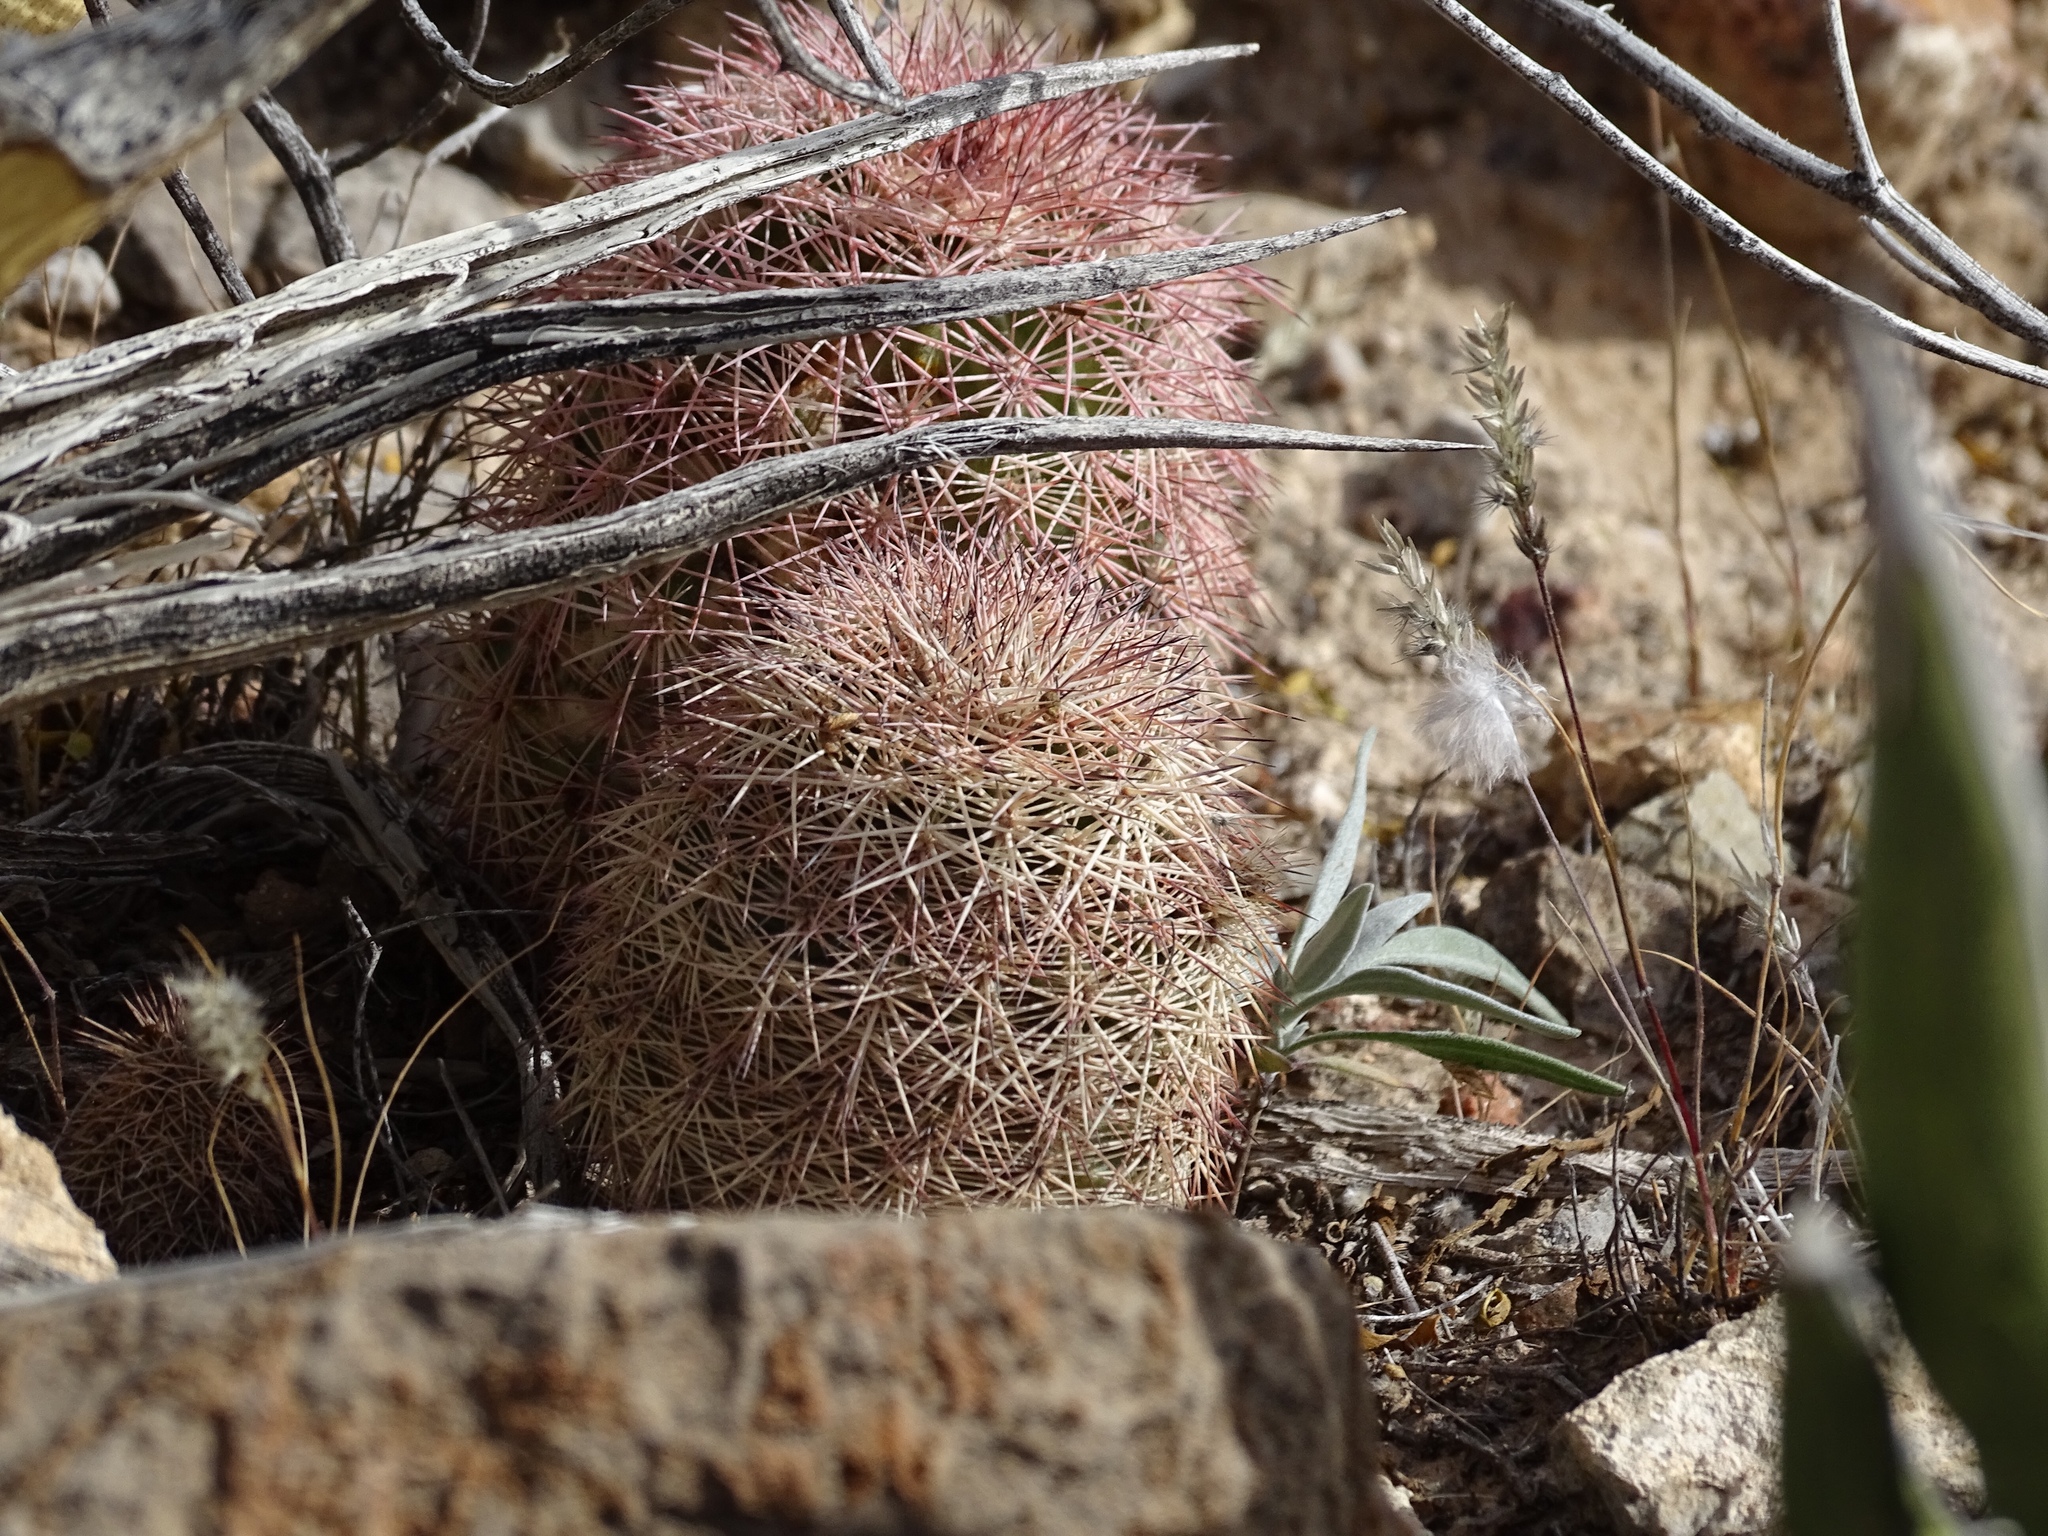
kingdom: Plantae
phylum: Tracheophyta
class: Magnoliopsida
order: Caryophyllales
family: Cactaceae
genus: Echinocereus
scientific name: Echinocereus dasyacanthus
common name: Spiny hedgehog cactus
